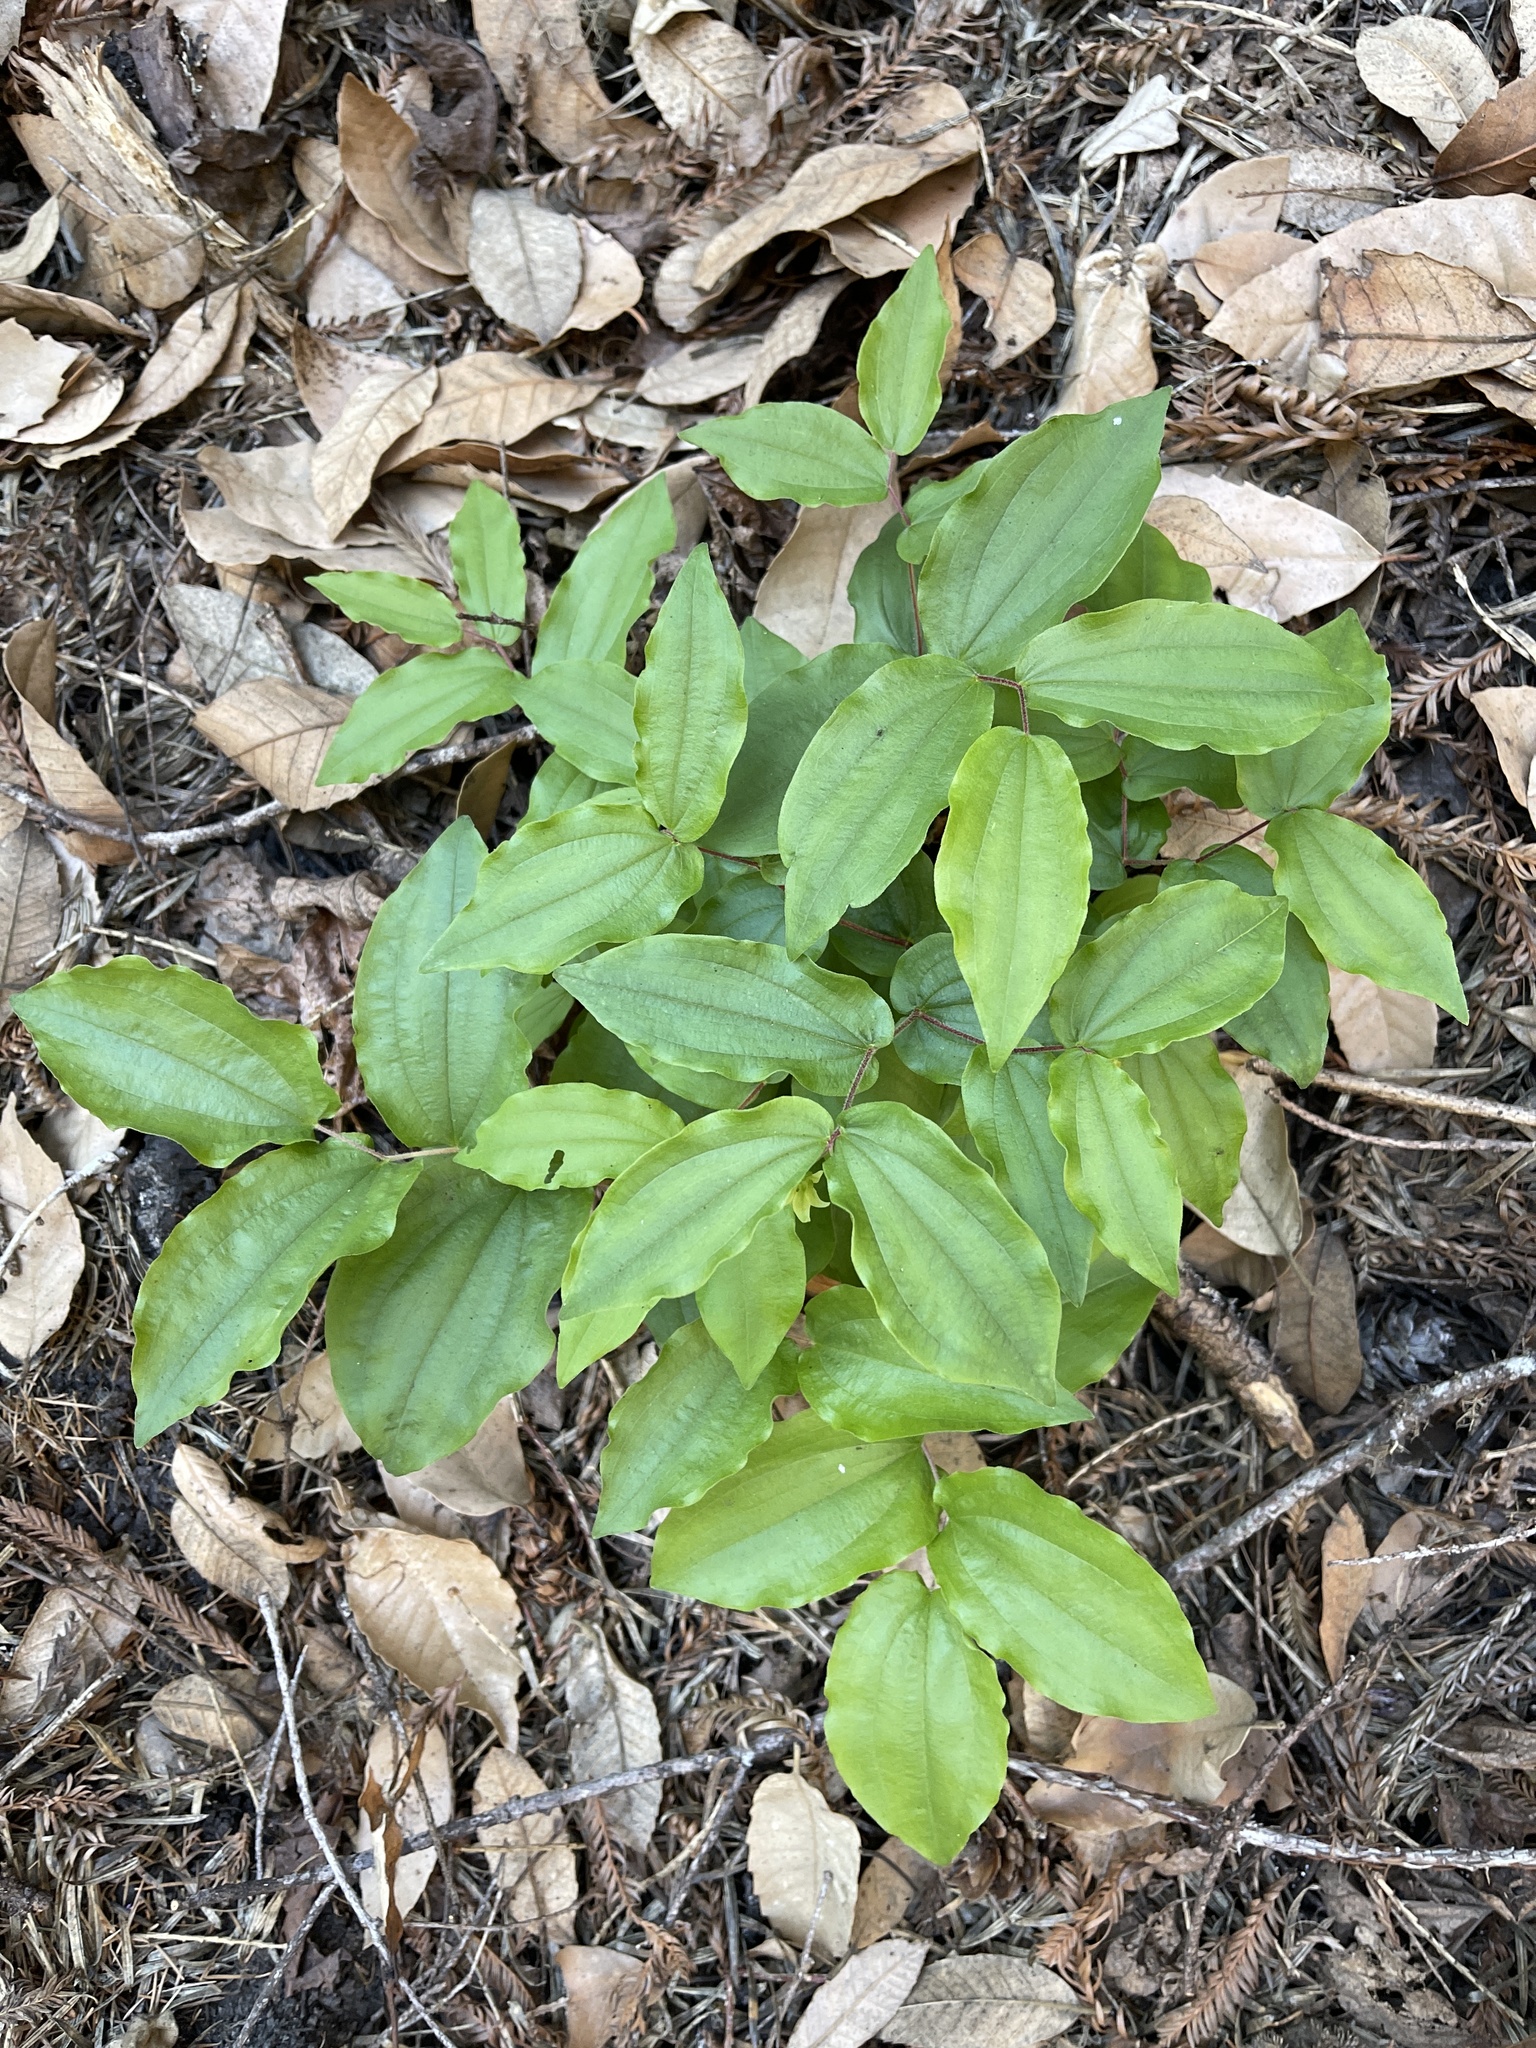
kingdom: Plantae
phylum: Tracheophyta
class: Liliopsida
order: Liliales
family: Liliaceae
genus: Prosartes
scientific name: Prosartes hookeri
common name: Fairy-bells
